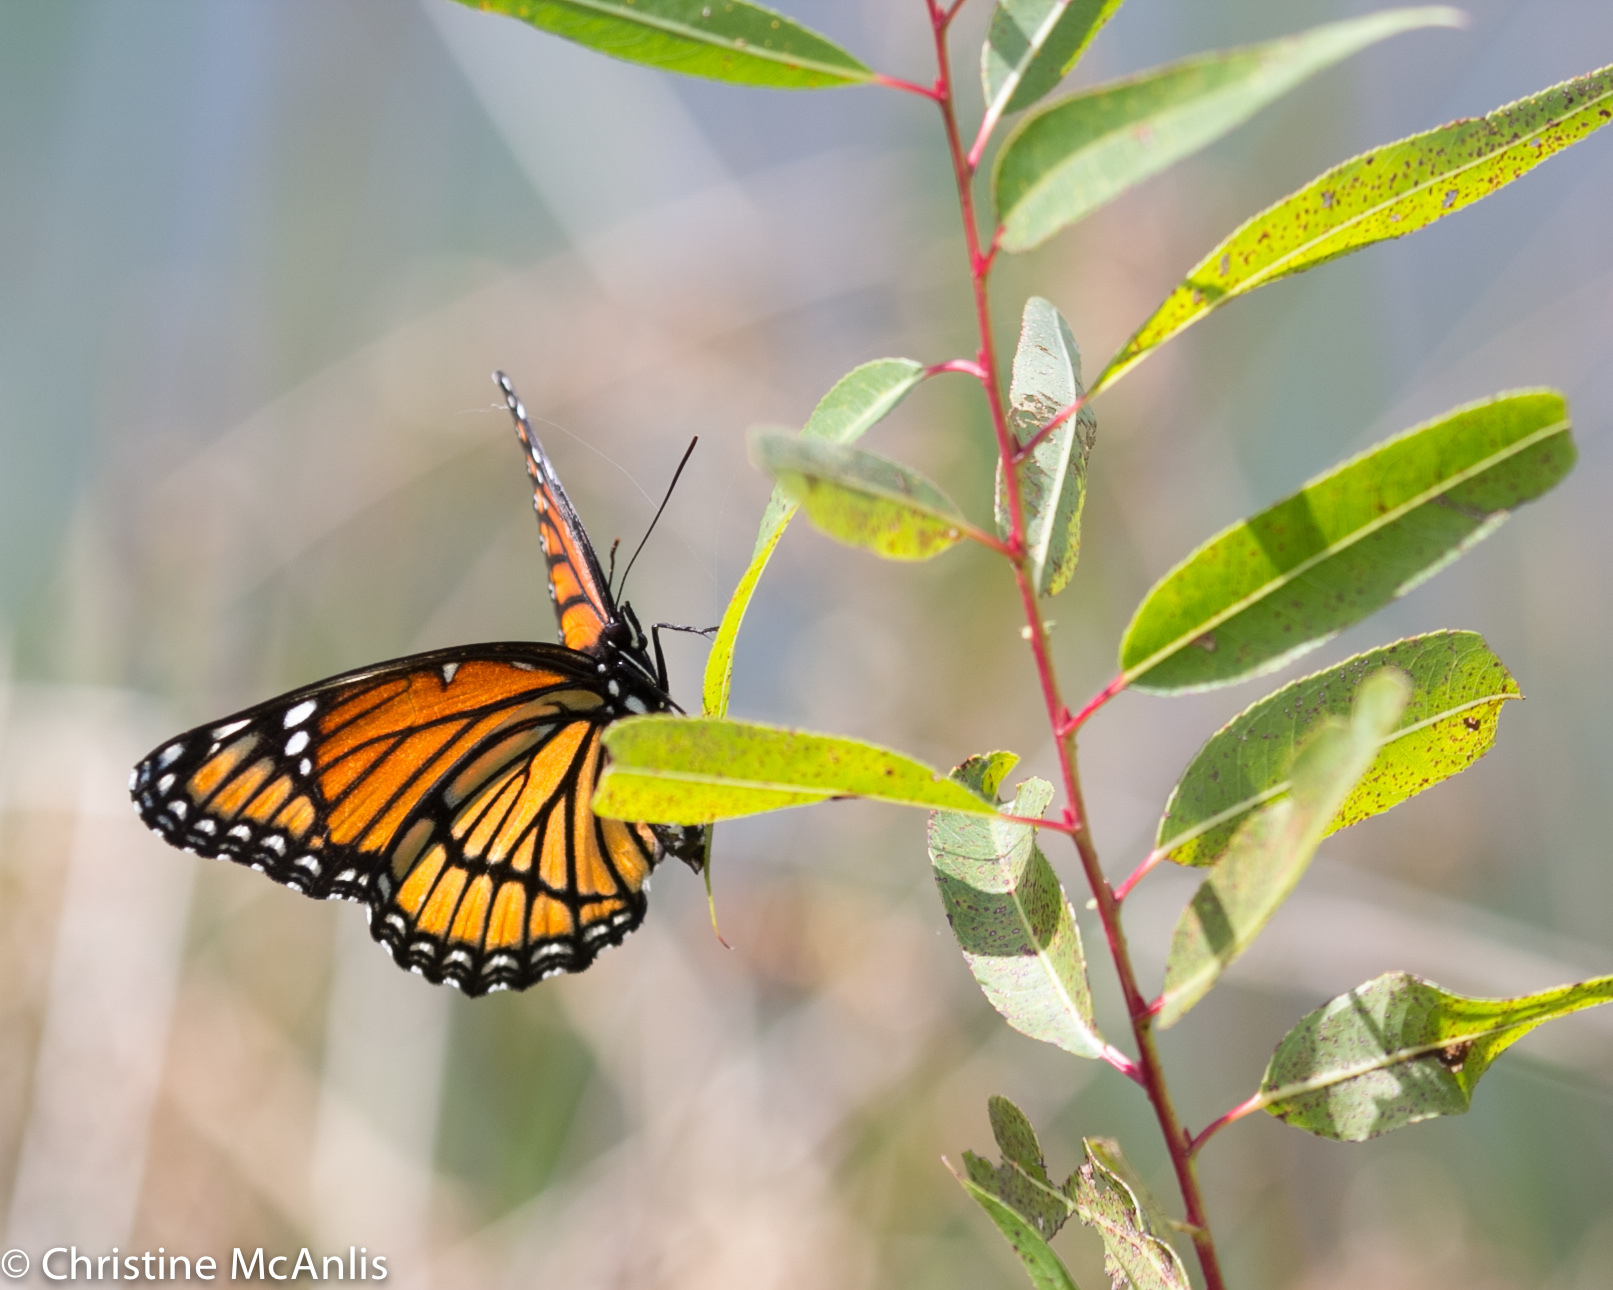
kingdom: Animalia
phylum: Arthropoda
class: Insecta
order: Lepidoptera
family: Nymphalidae
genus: Limenitis
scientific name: Limenitis archippus
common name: Viceroy
